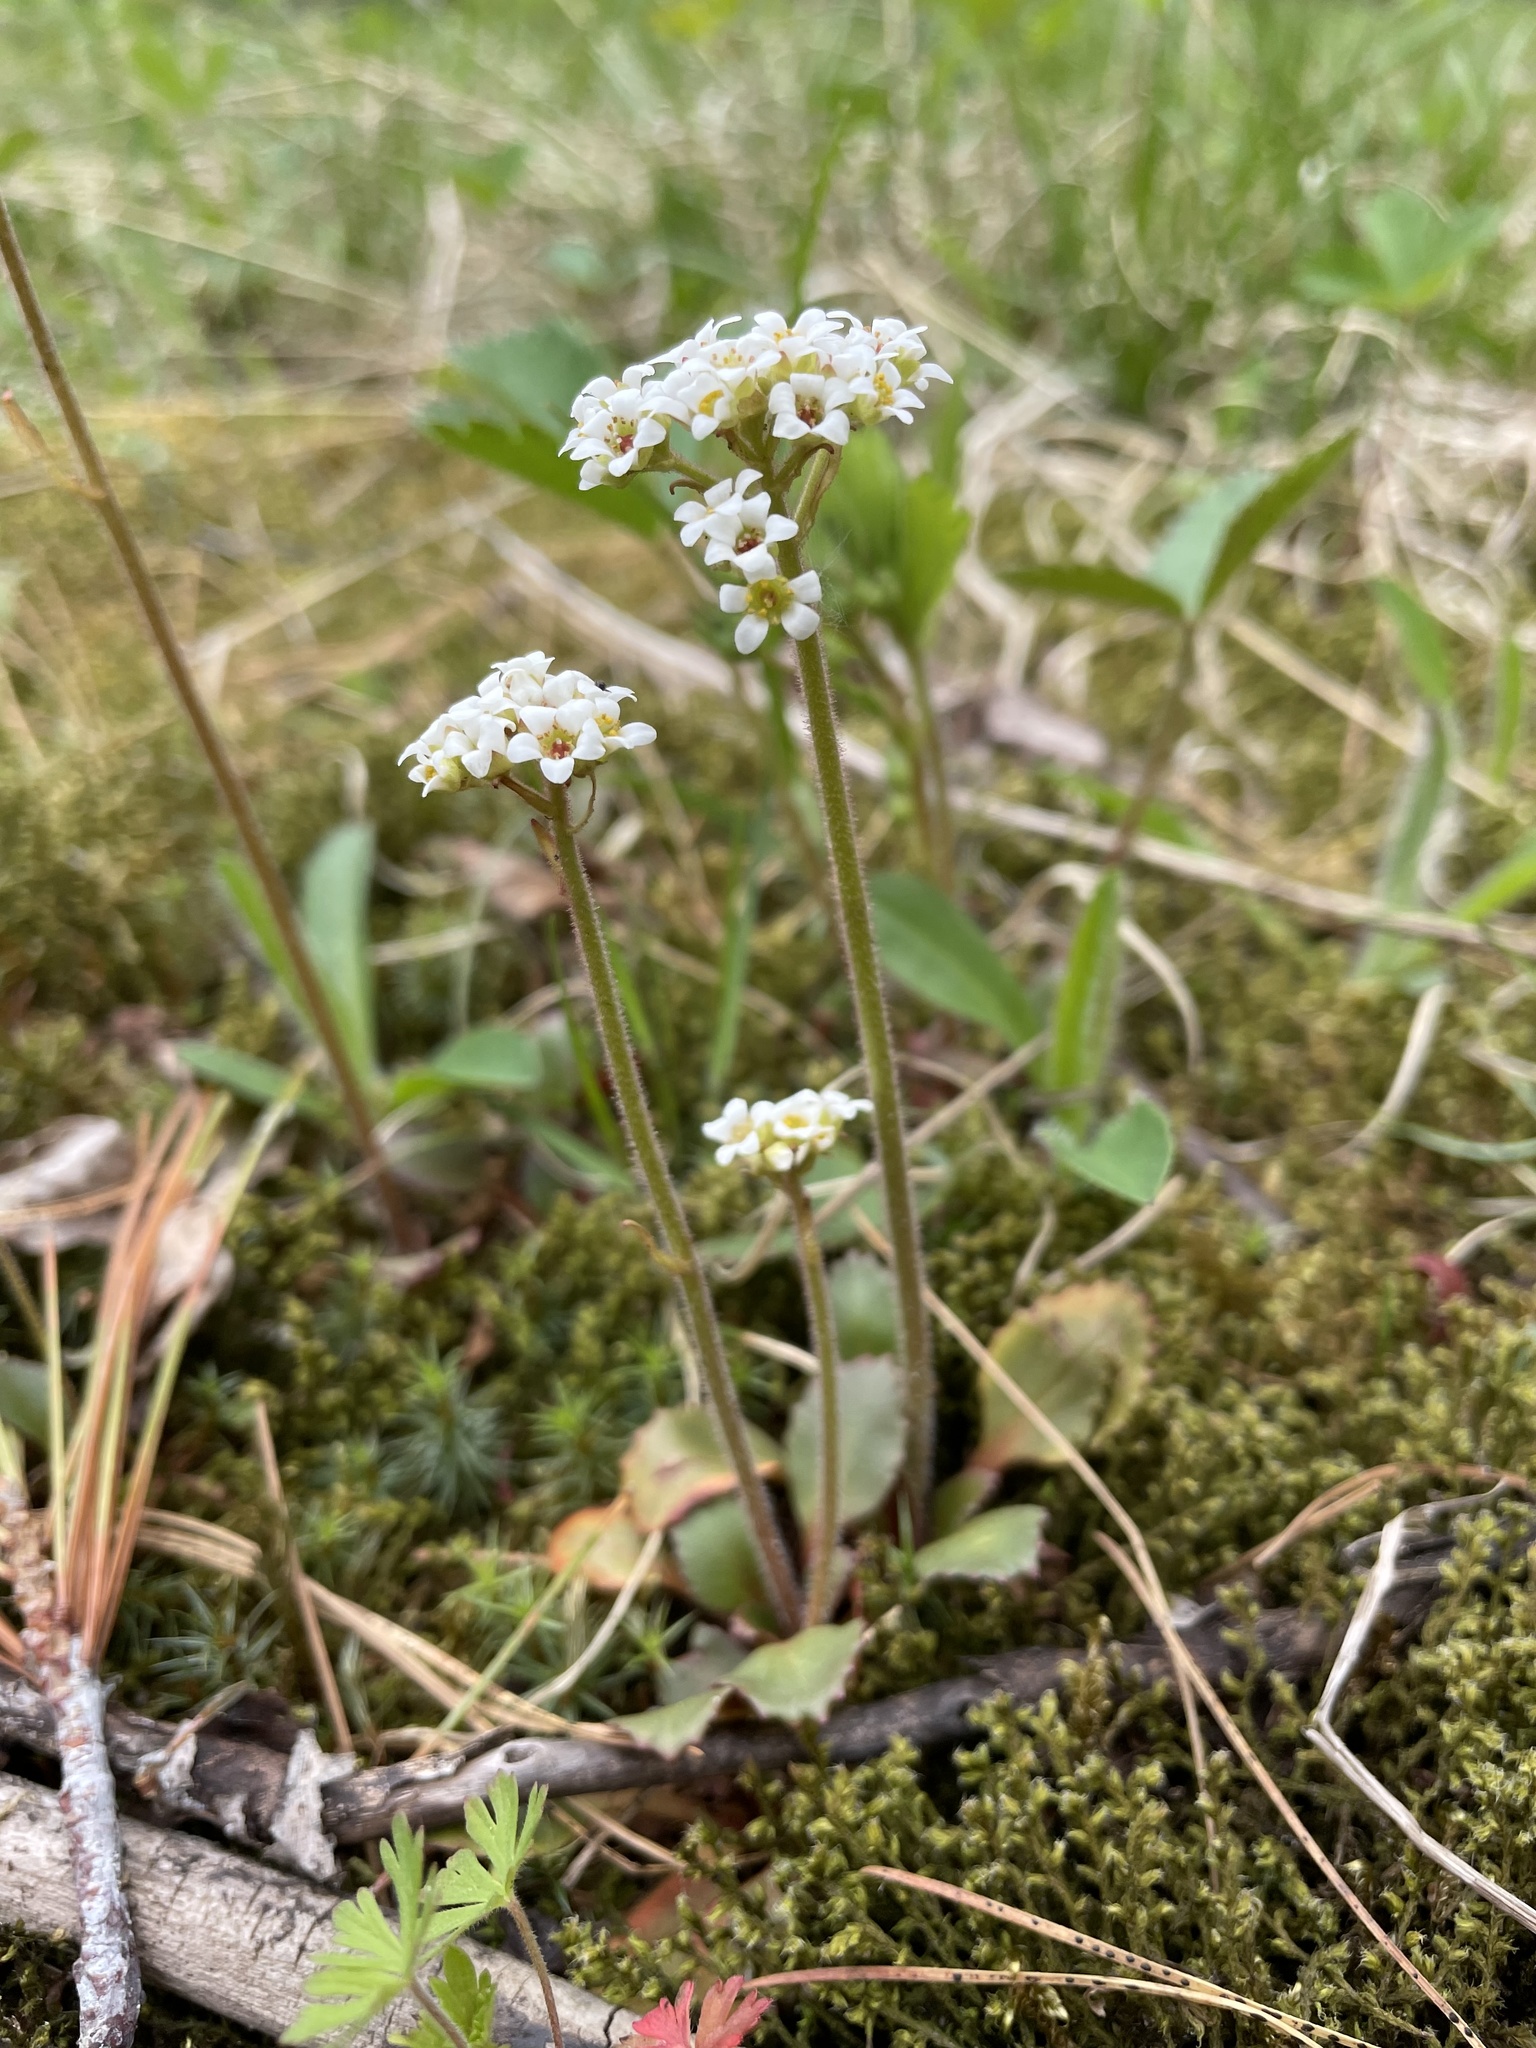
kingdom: Plantae
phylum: Tracheophyta
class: Magnoliopsida
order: Saxifragales
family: Saxifragaceae
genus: Micranthes
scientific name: Micranthes virginiensis
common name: Early saxifrage
